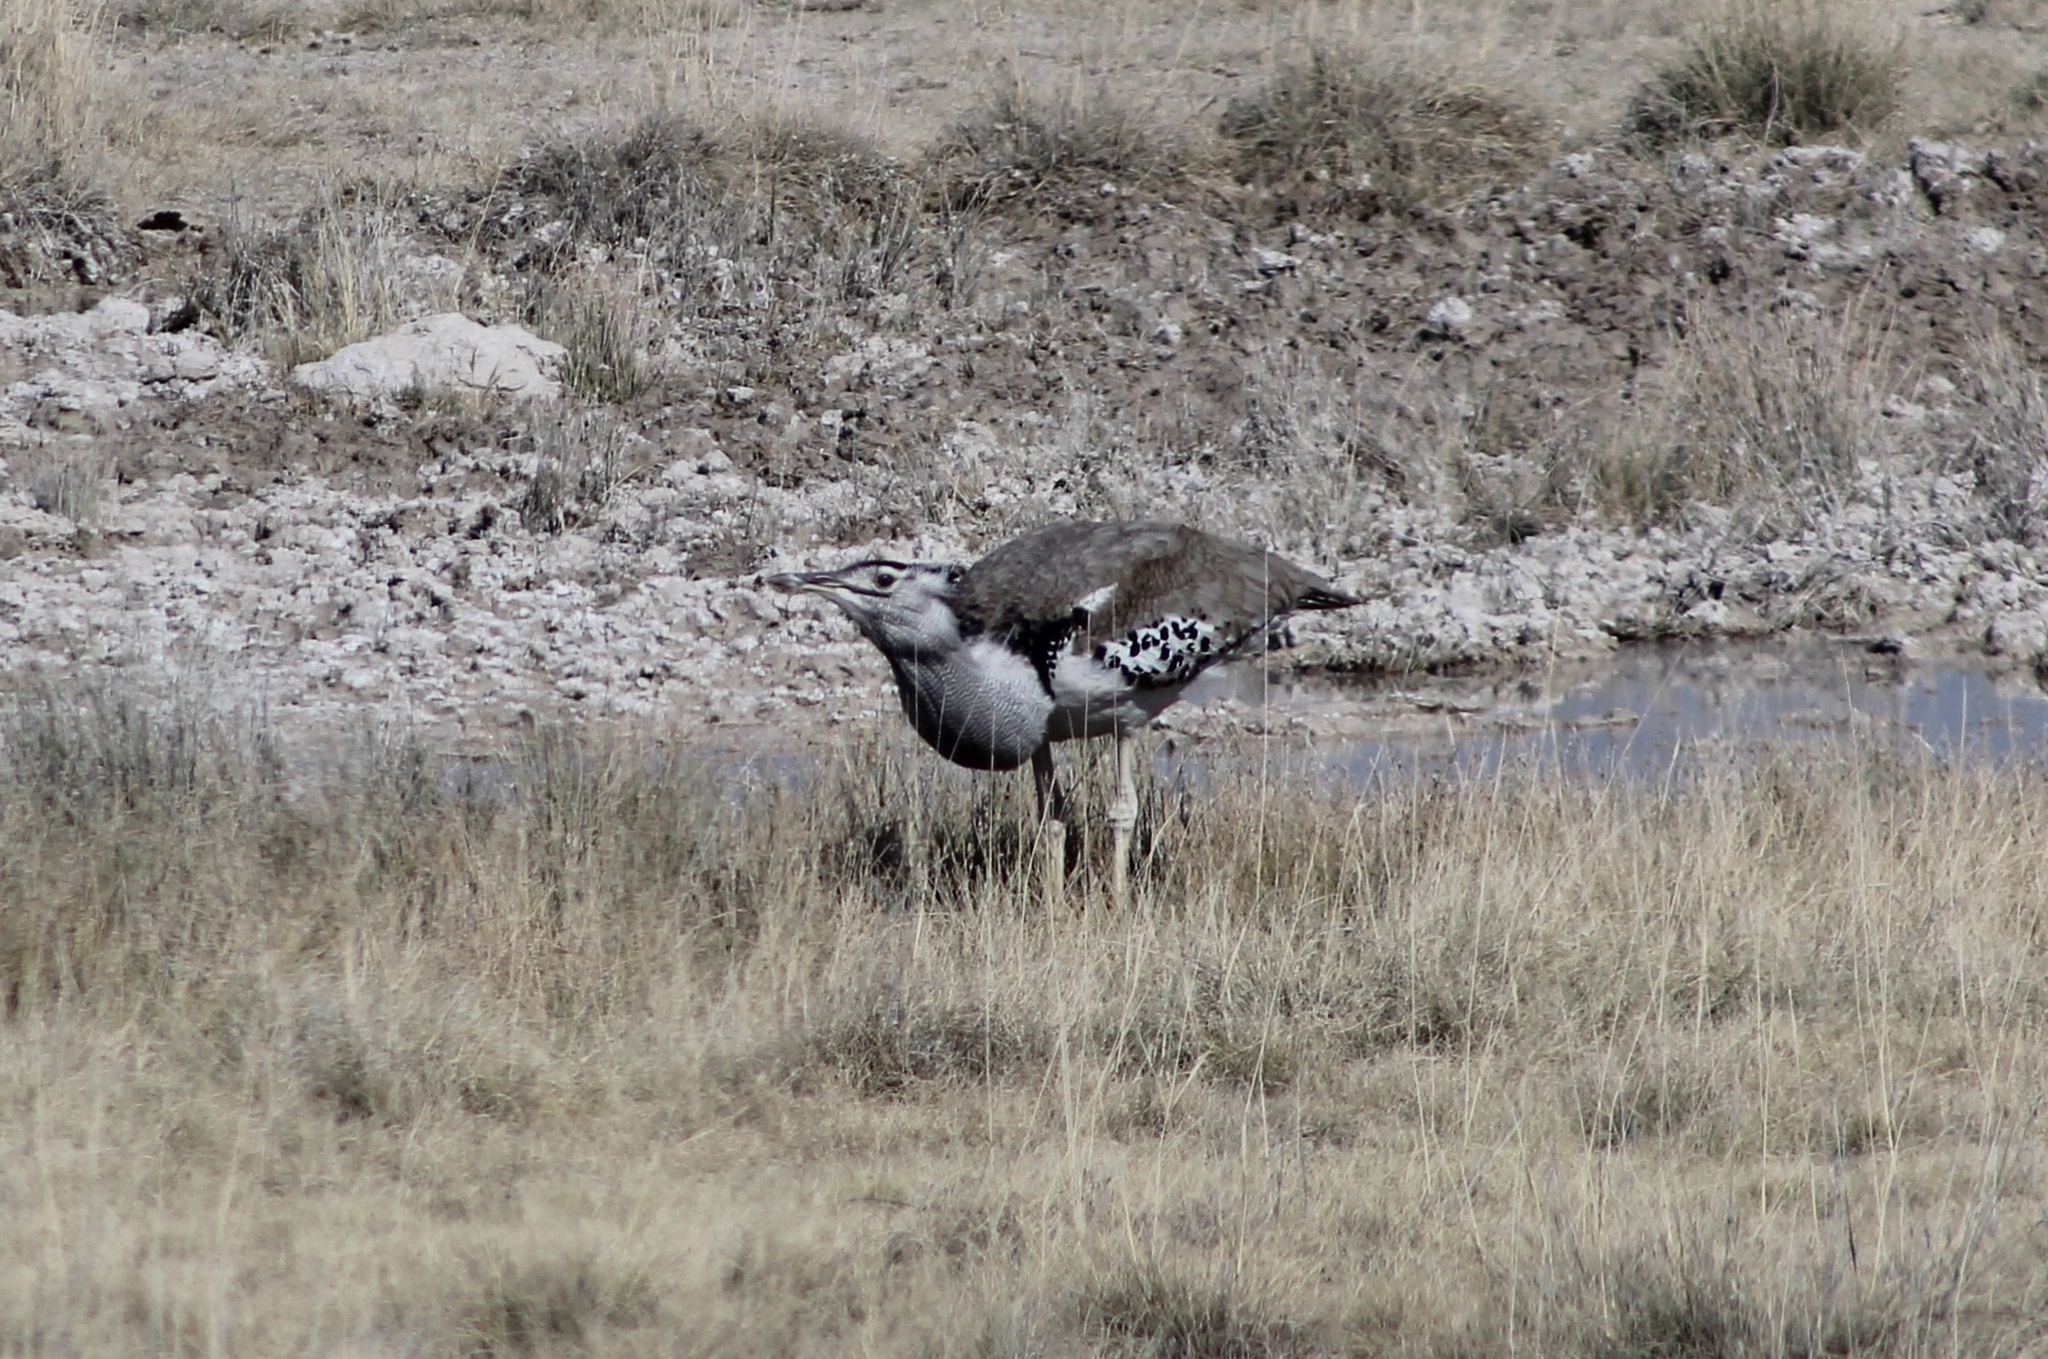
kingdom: Animalia
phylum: Chordata
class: Aves
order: Otidiformes
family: Otididae
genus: Ardeotis
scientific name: Ardeotis kori
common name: Kori bustard
